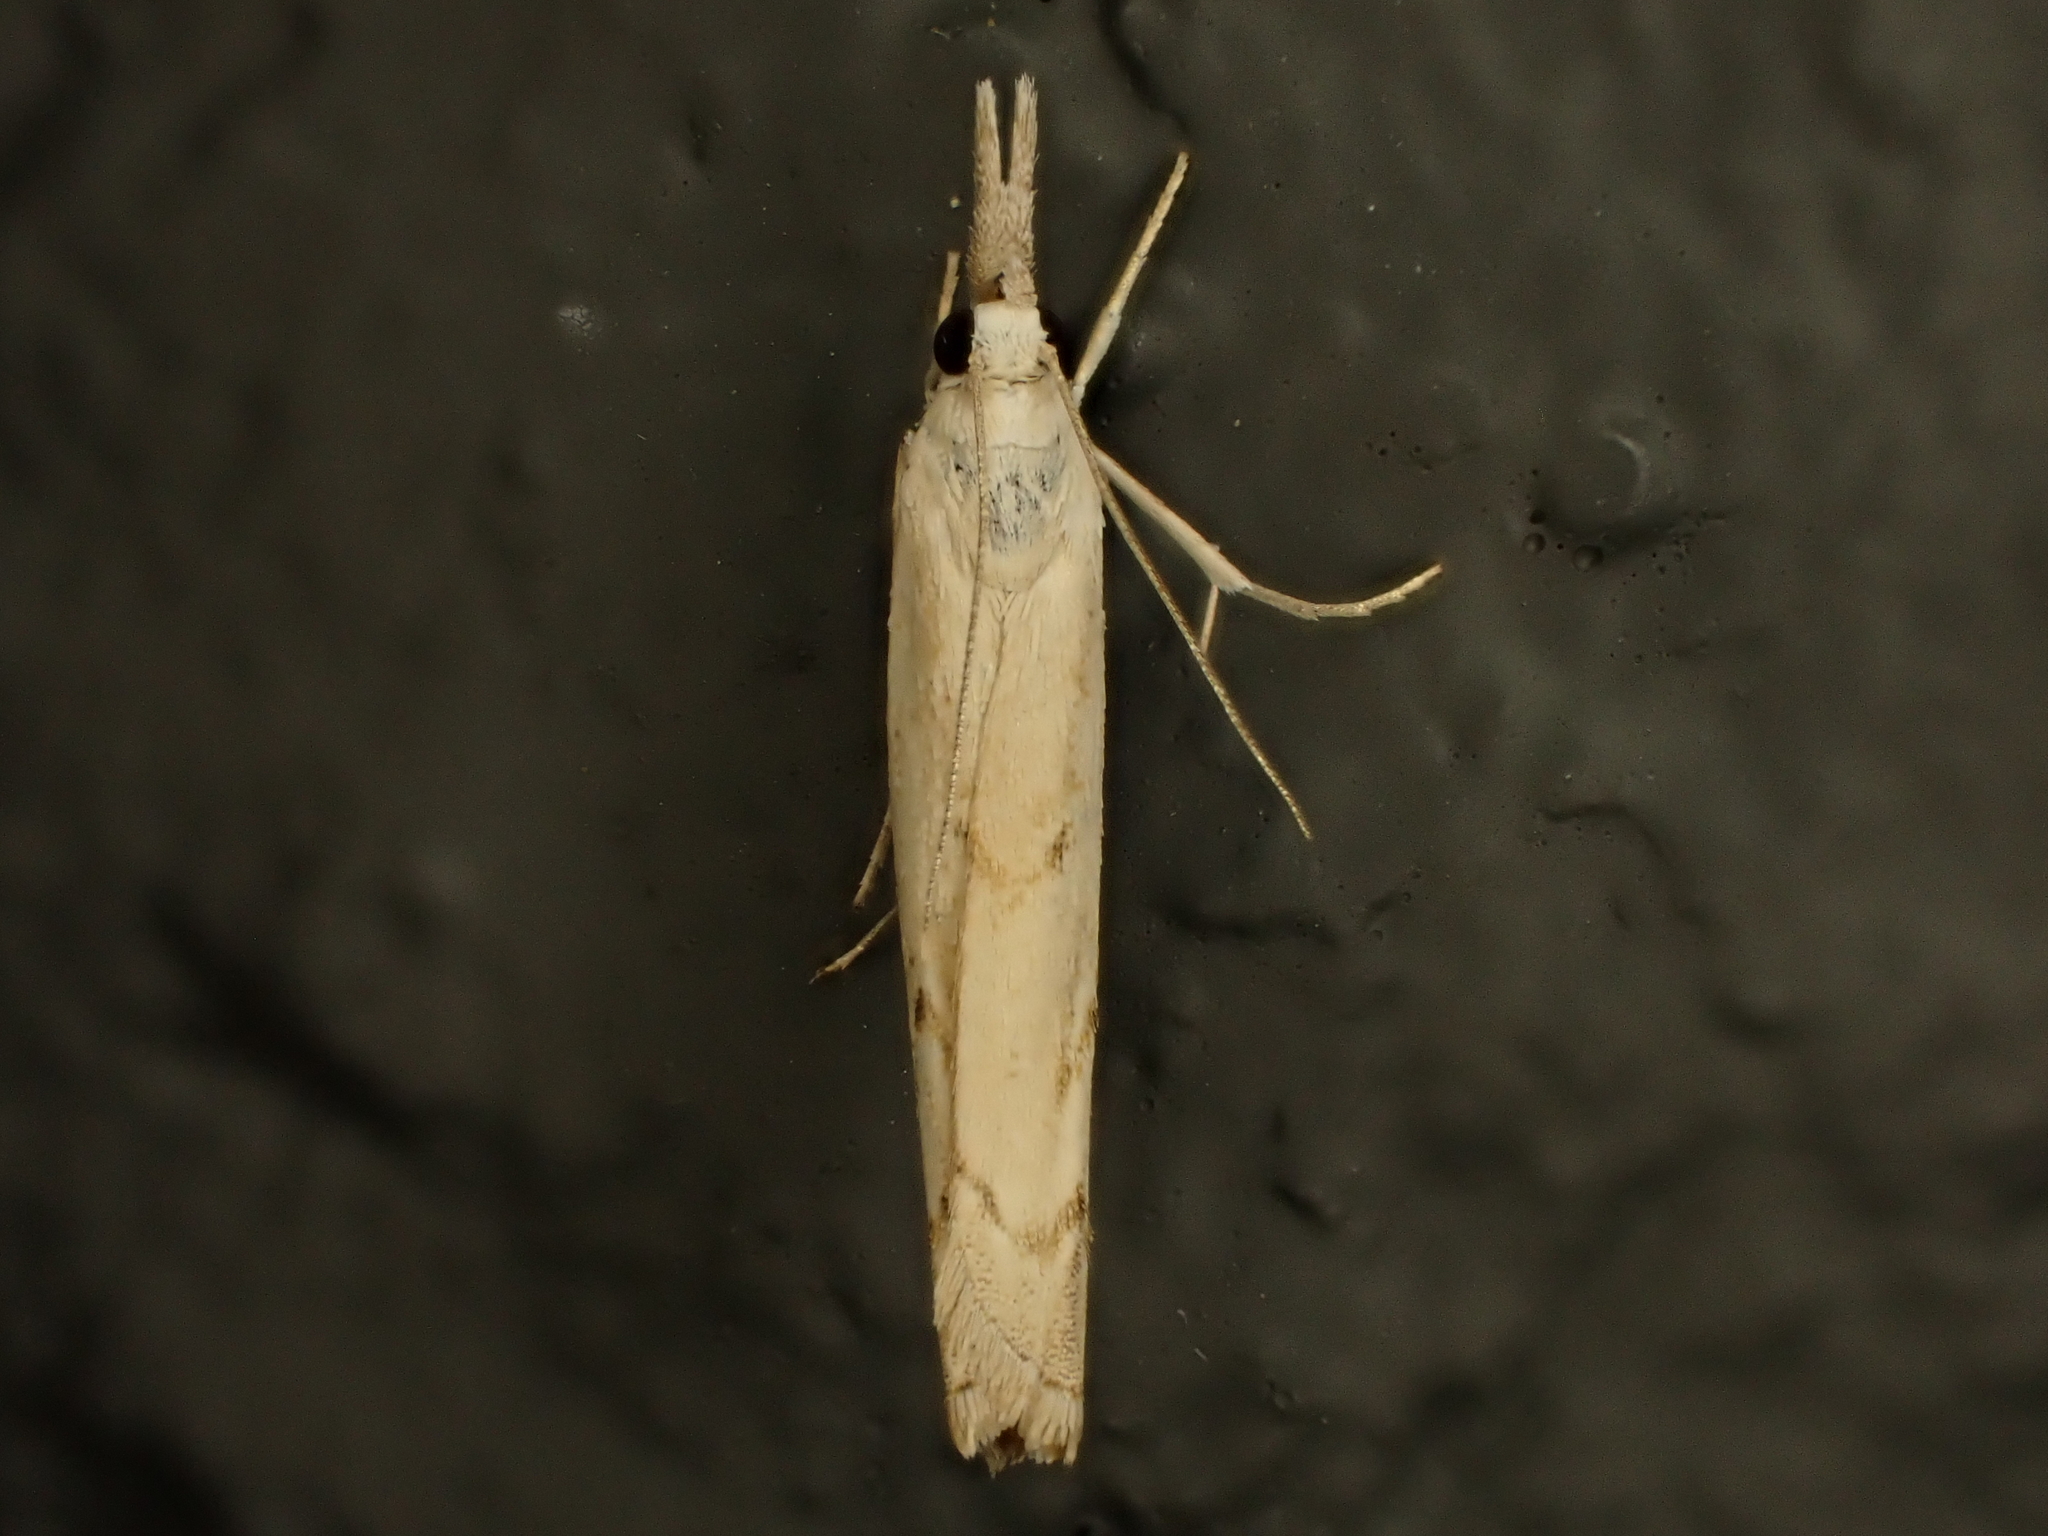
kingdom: Animalia
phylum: Arthropoda
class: Insecta
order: Lepidoptera
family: Crambidae
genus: Culladia
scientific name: Culladia cuneiferellus
